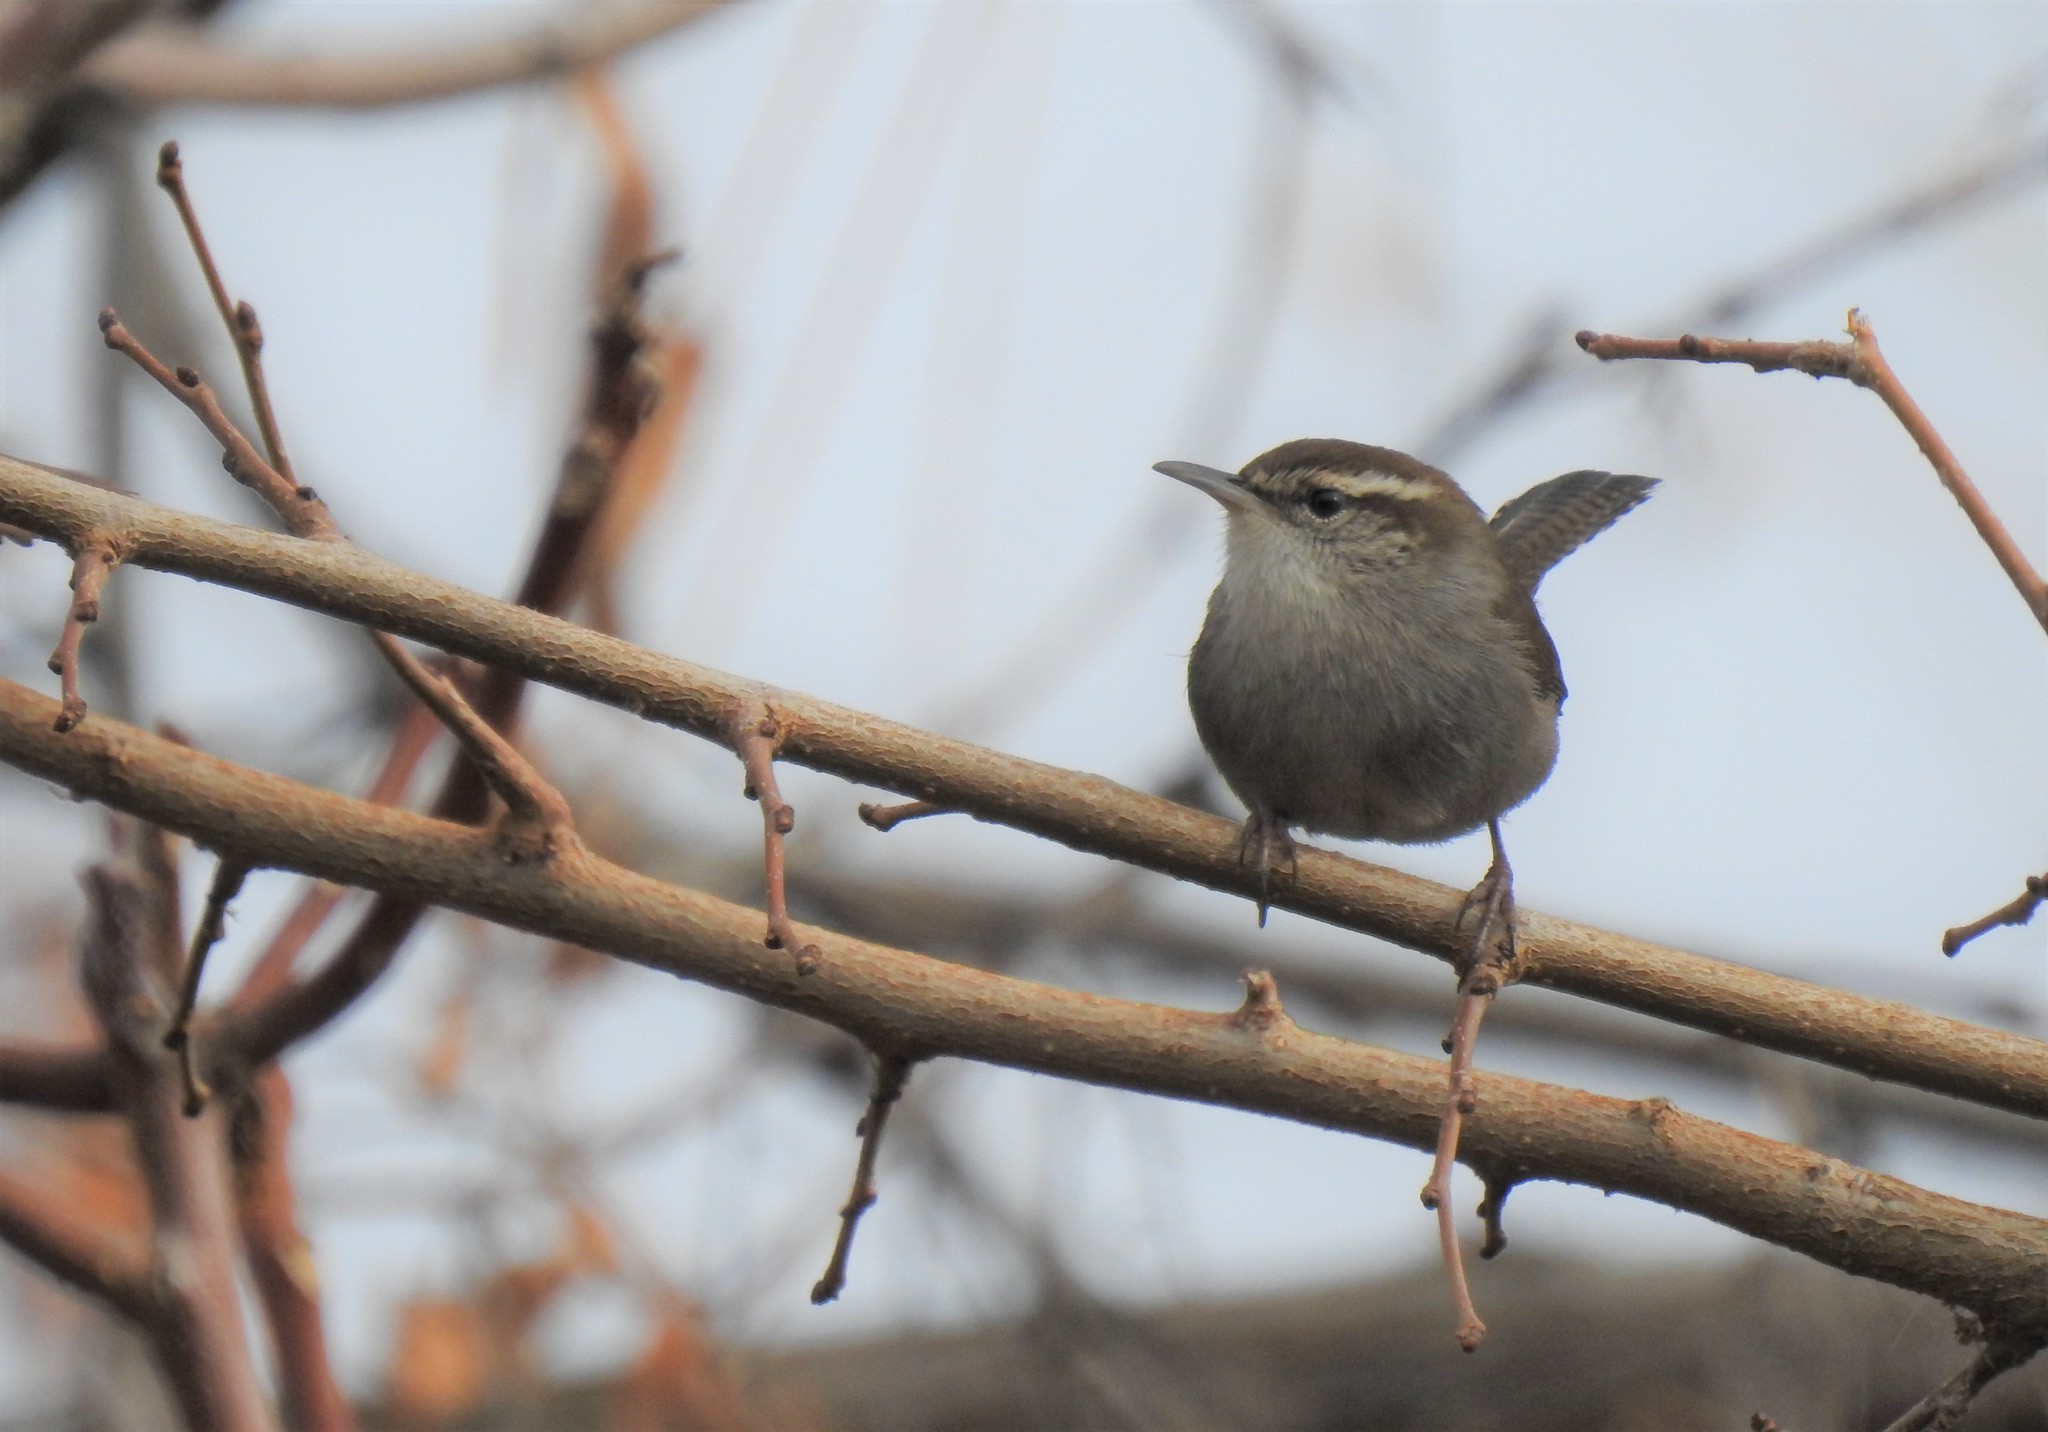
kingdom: Animalia
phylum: Chordata
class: Aves
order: Passeriformes
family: Troglodytidae
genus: Thryomanes
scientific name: Thryomanes bewickii
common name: Bewick's wren
